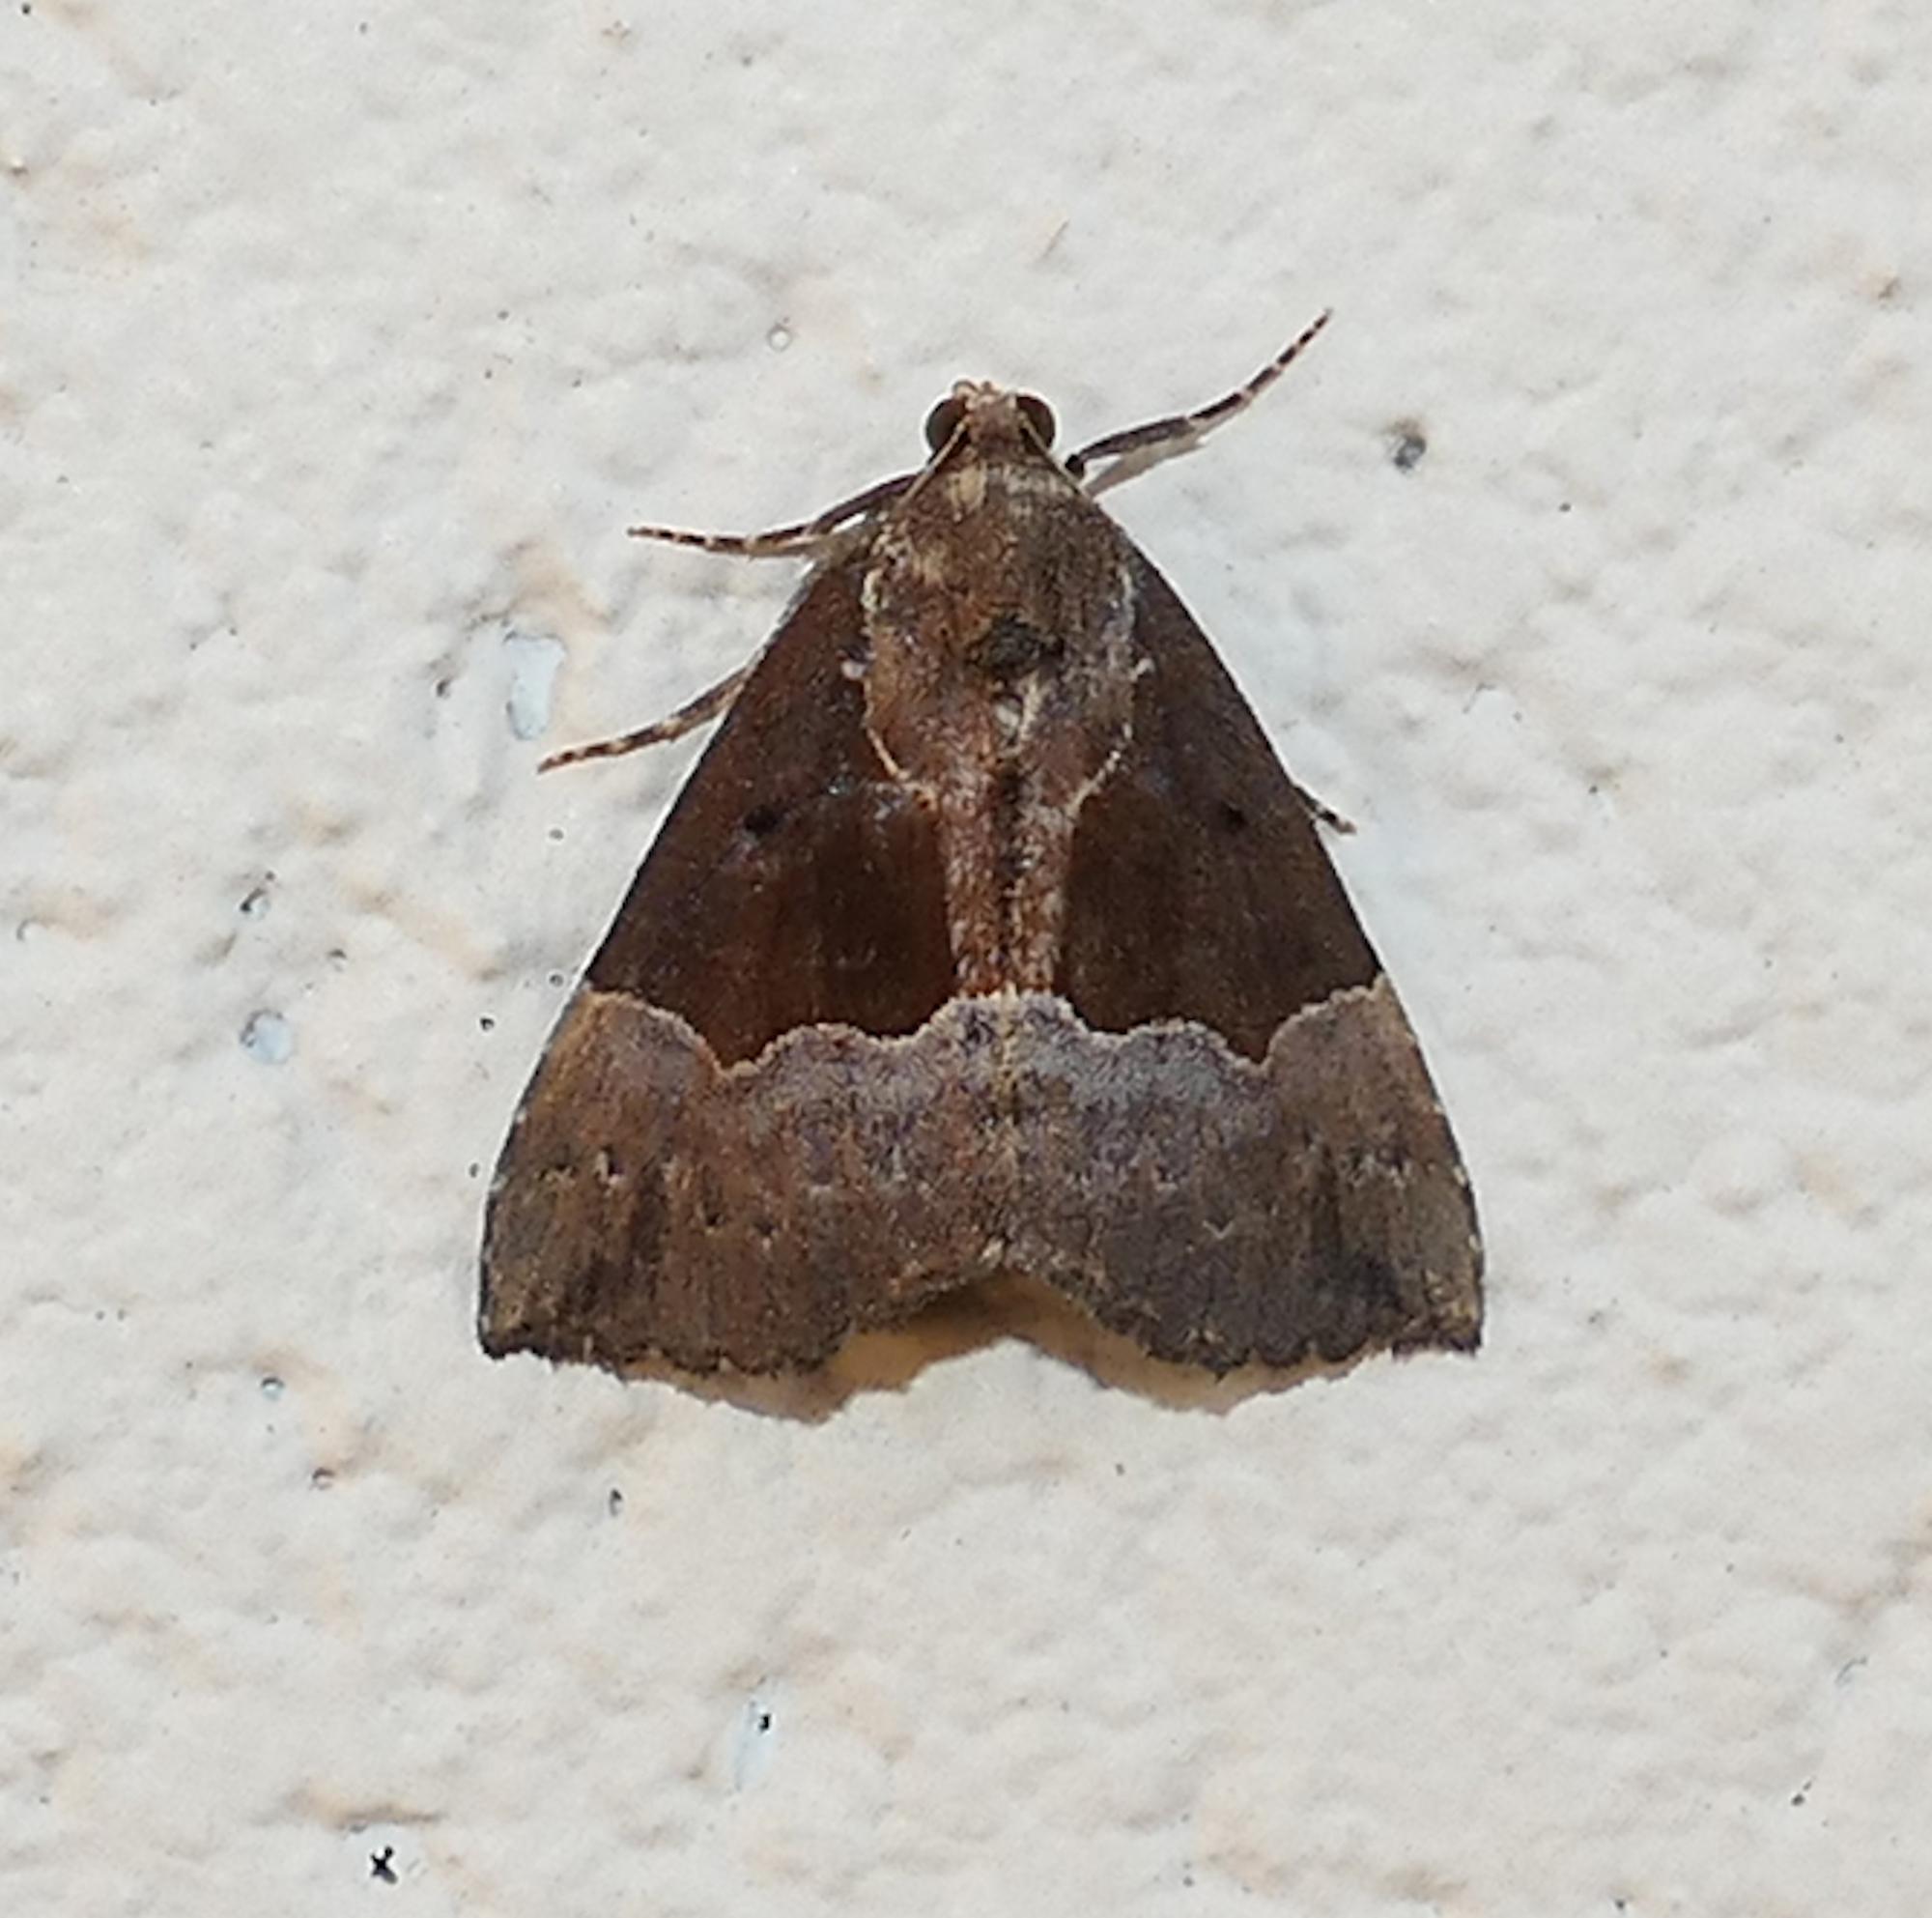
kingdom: Animalia
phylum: Arthropoda
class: Insecta
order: Lepidoptera
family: Erebidae
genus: Hypena
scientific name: Hypena bijugalis
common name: Dimorphic bomolocha moth
